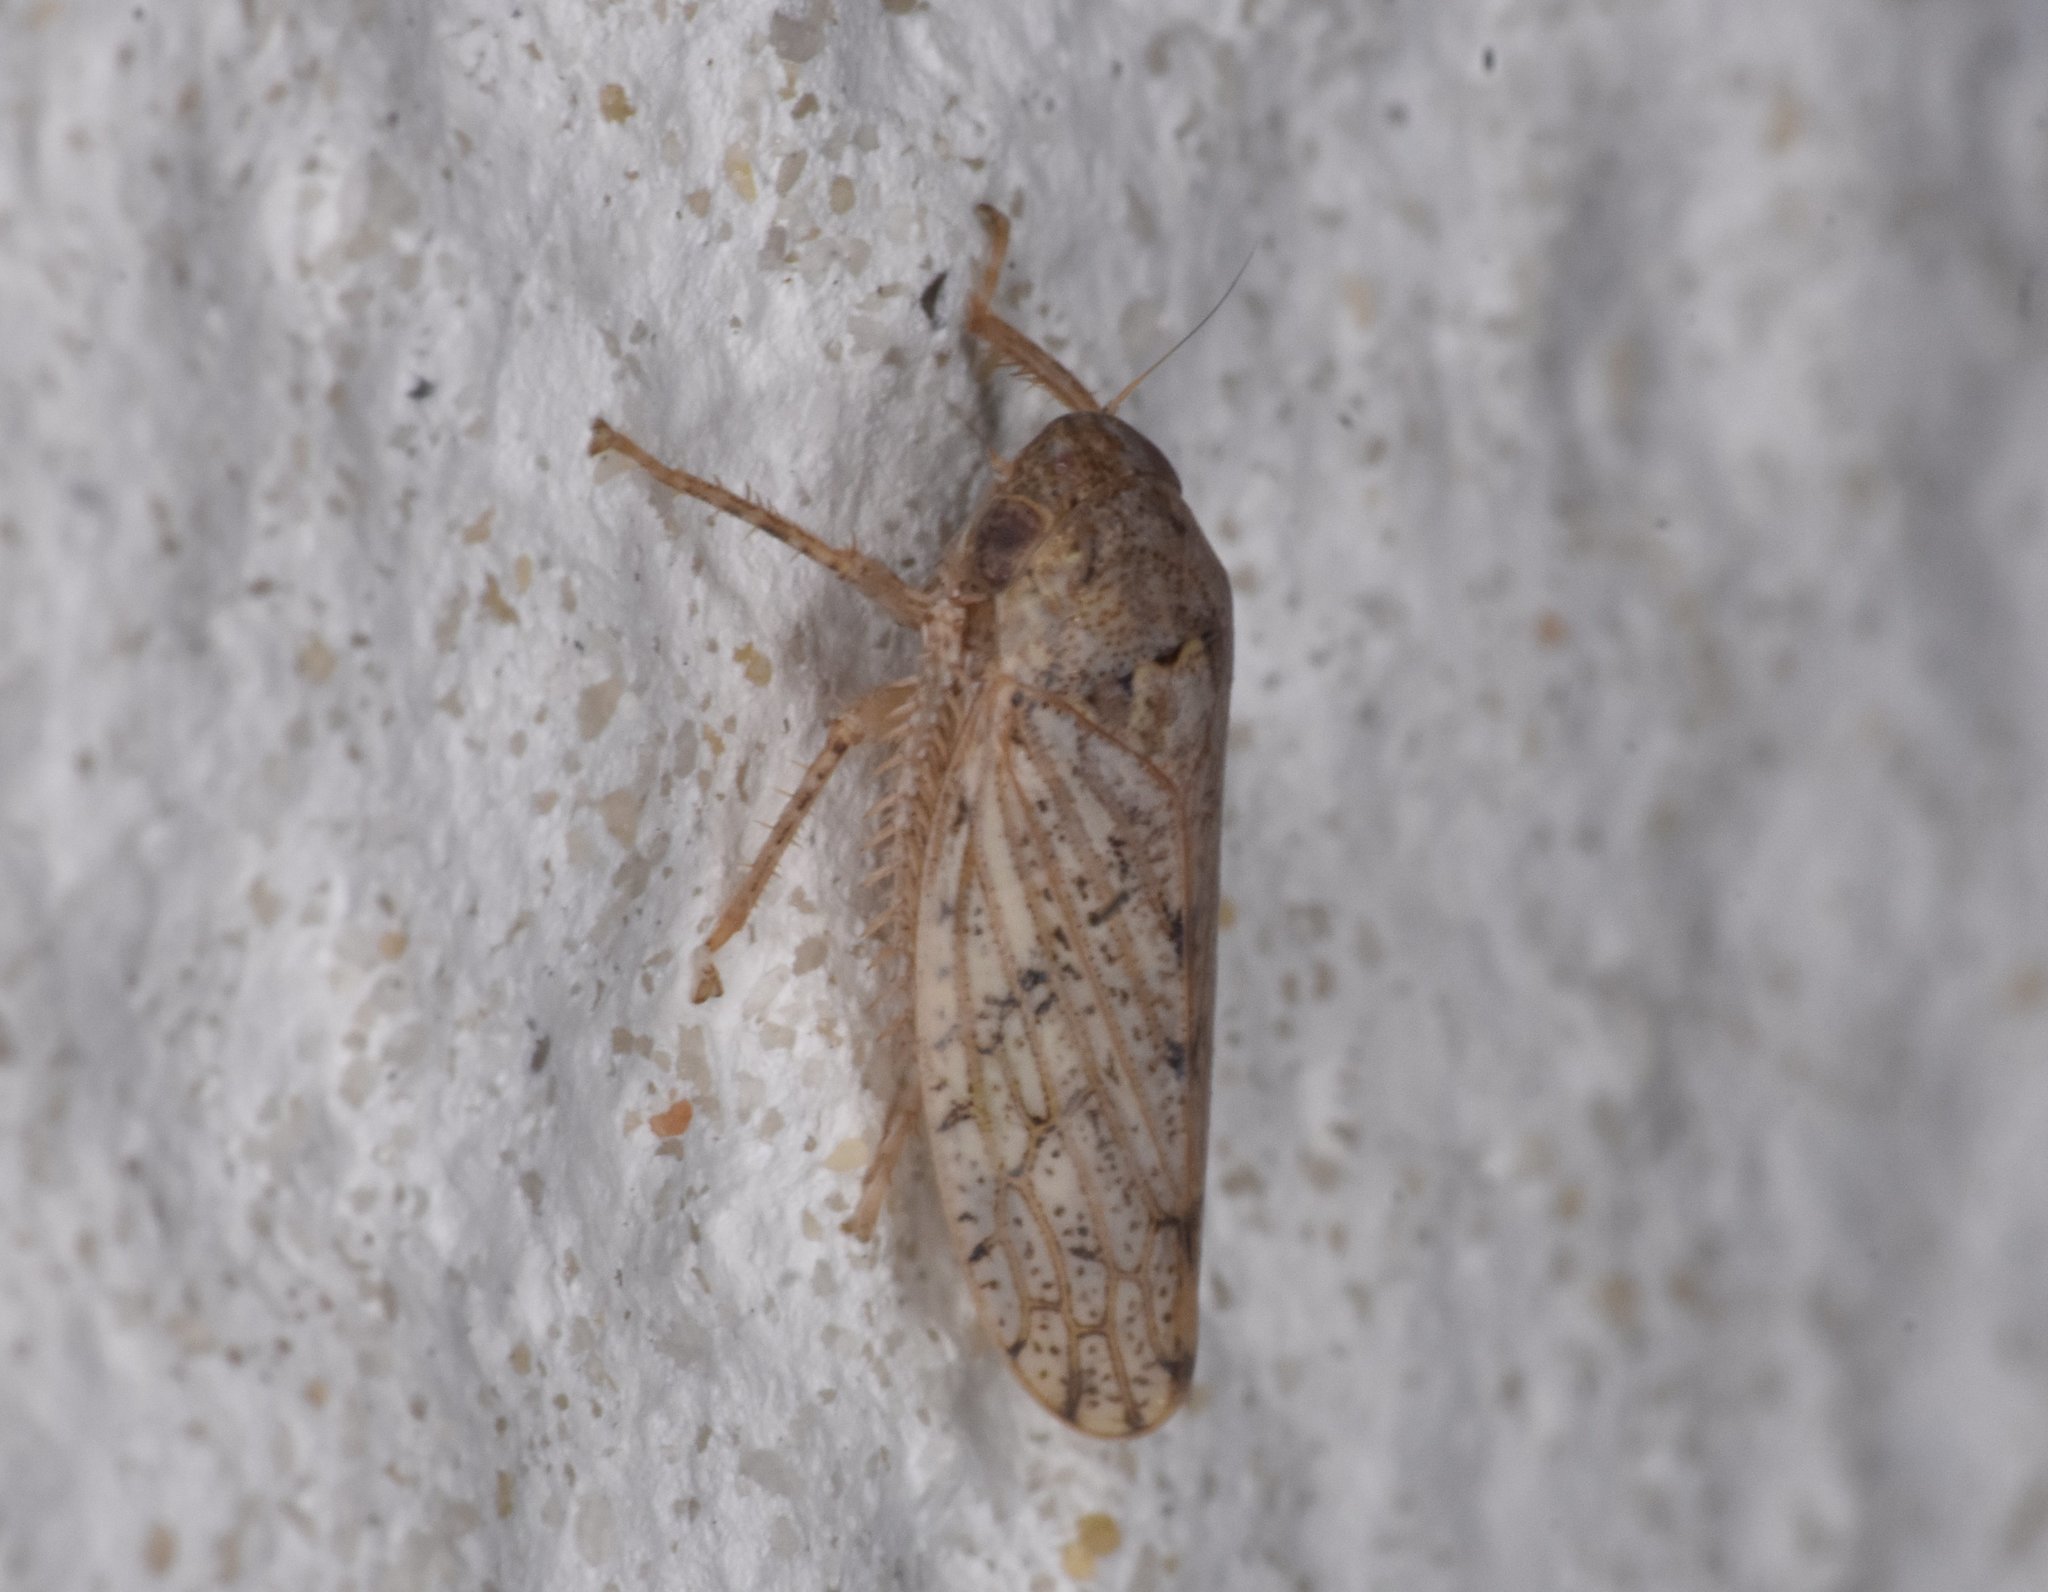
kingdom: Animalia
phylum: Arthropoda
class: Insecta
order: Hemiptera
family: Cicadellidae
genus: Curtara
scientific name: Curtara insularis
